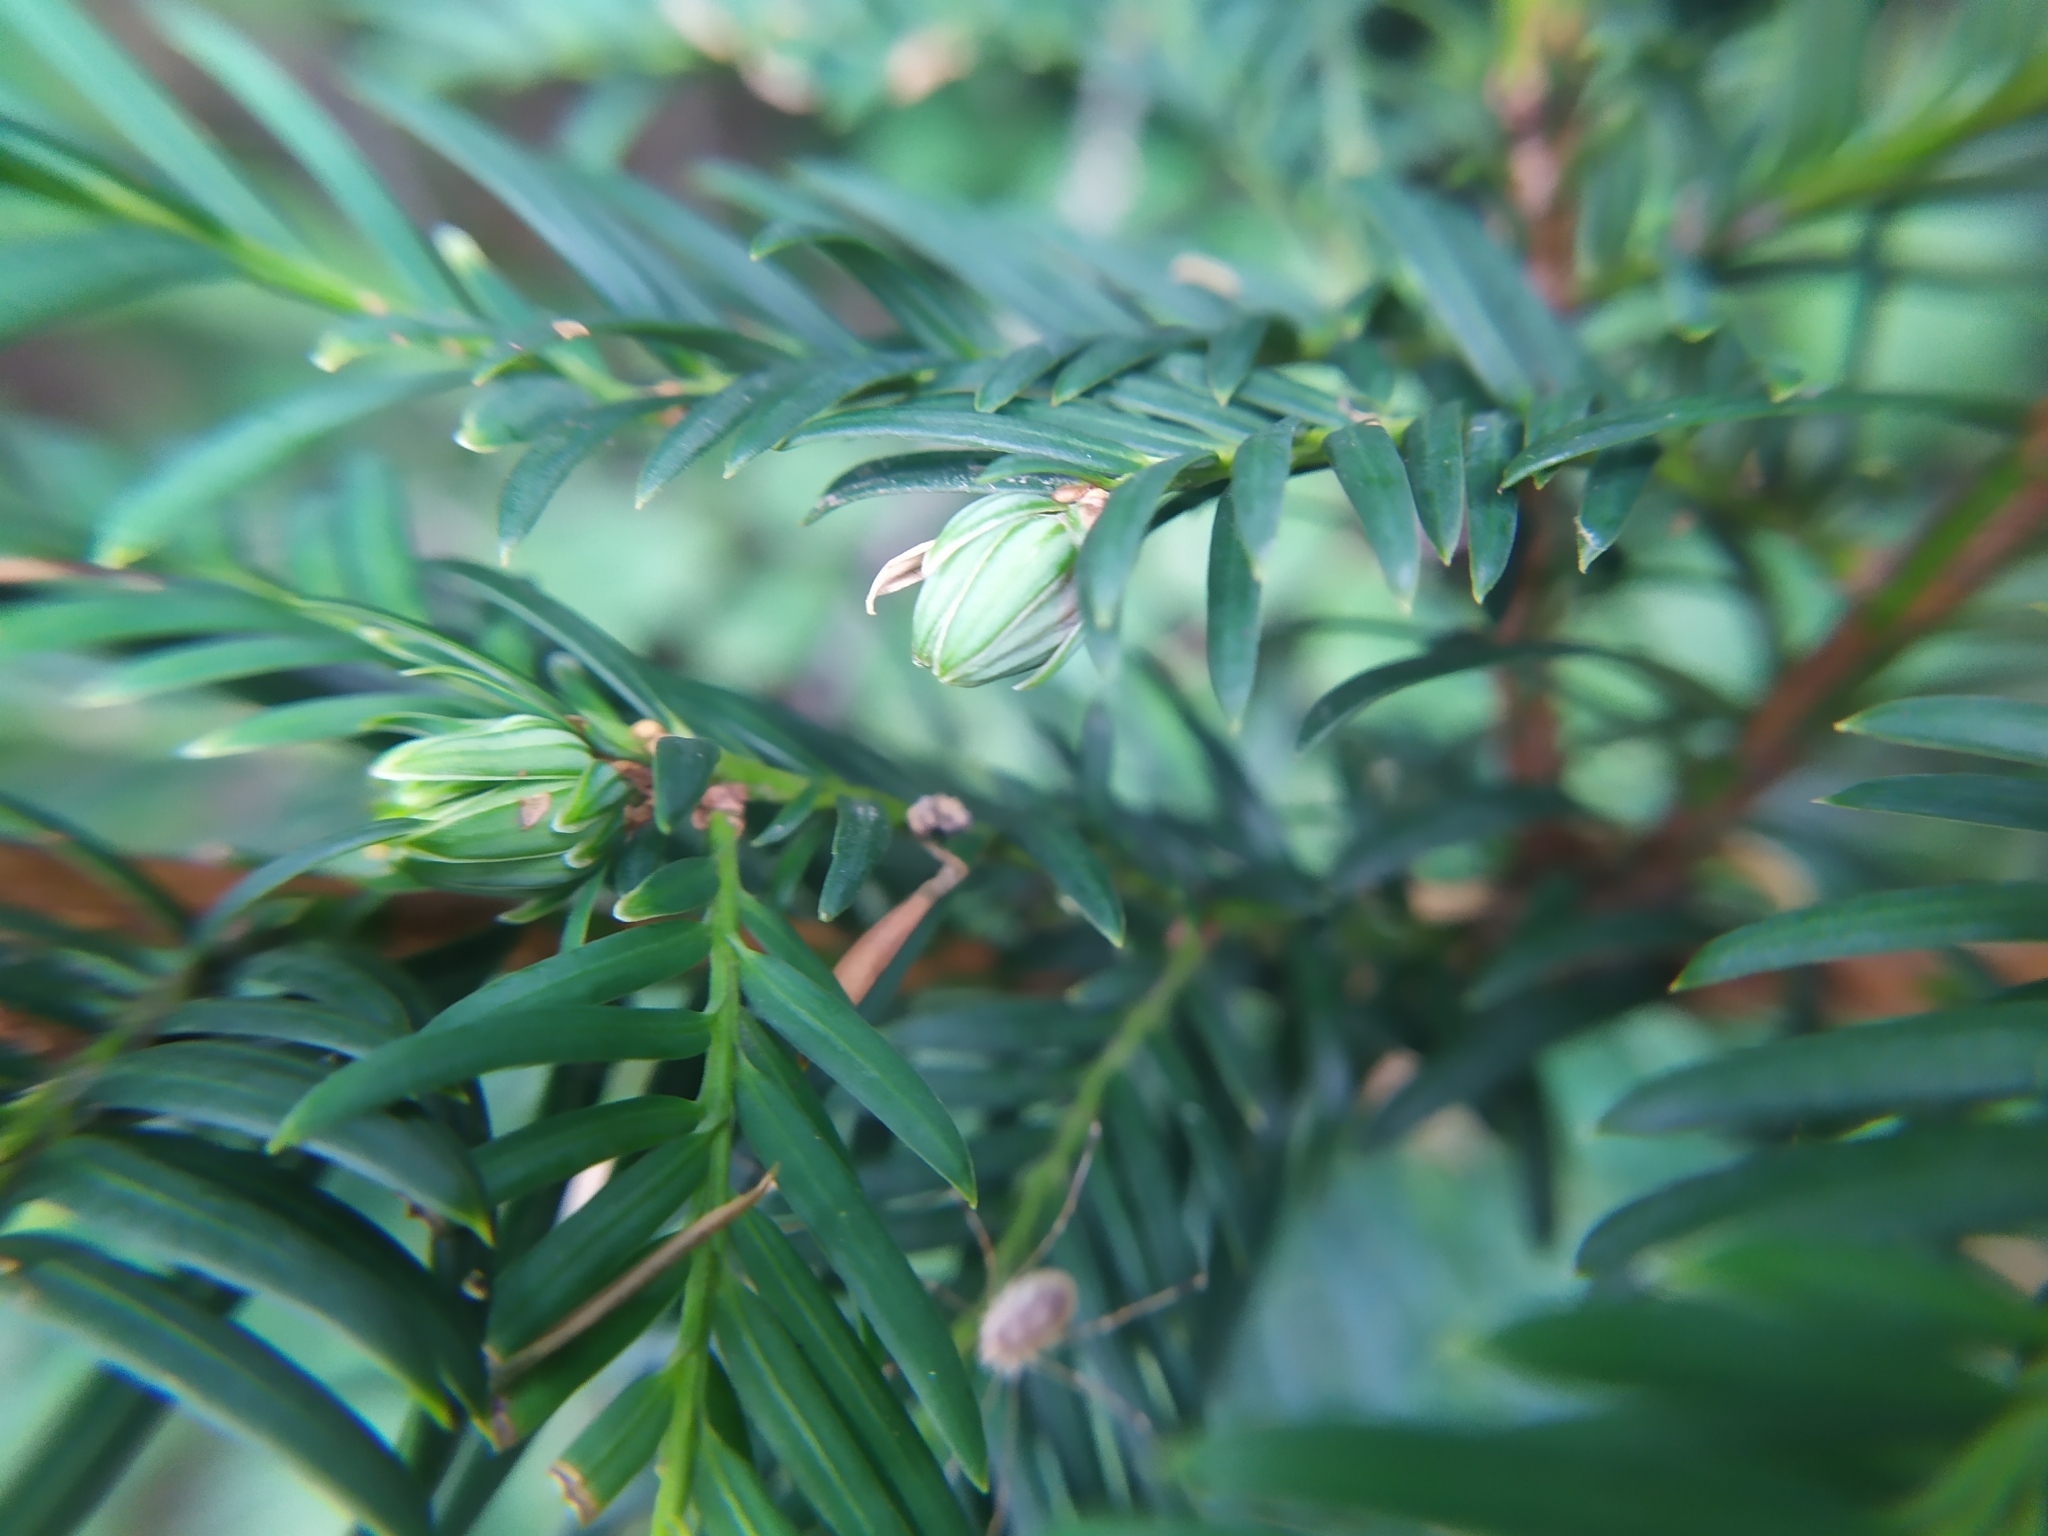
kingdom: Animalia
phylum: Arthropoda
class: Insecta
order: Diptera
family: Cecidomyiidae
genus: Taxomyia
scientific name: Taxomyia taxi
